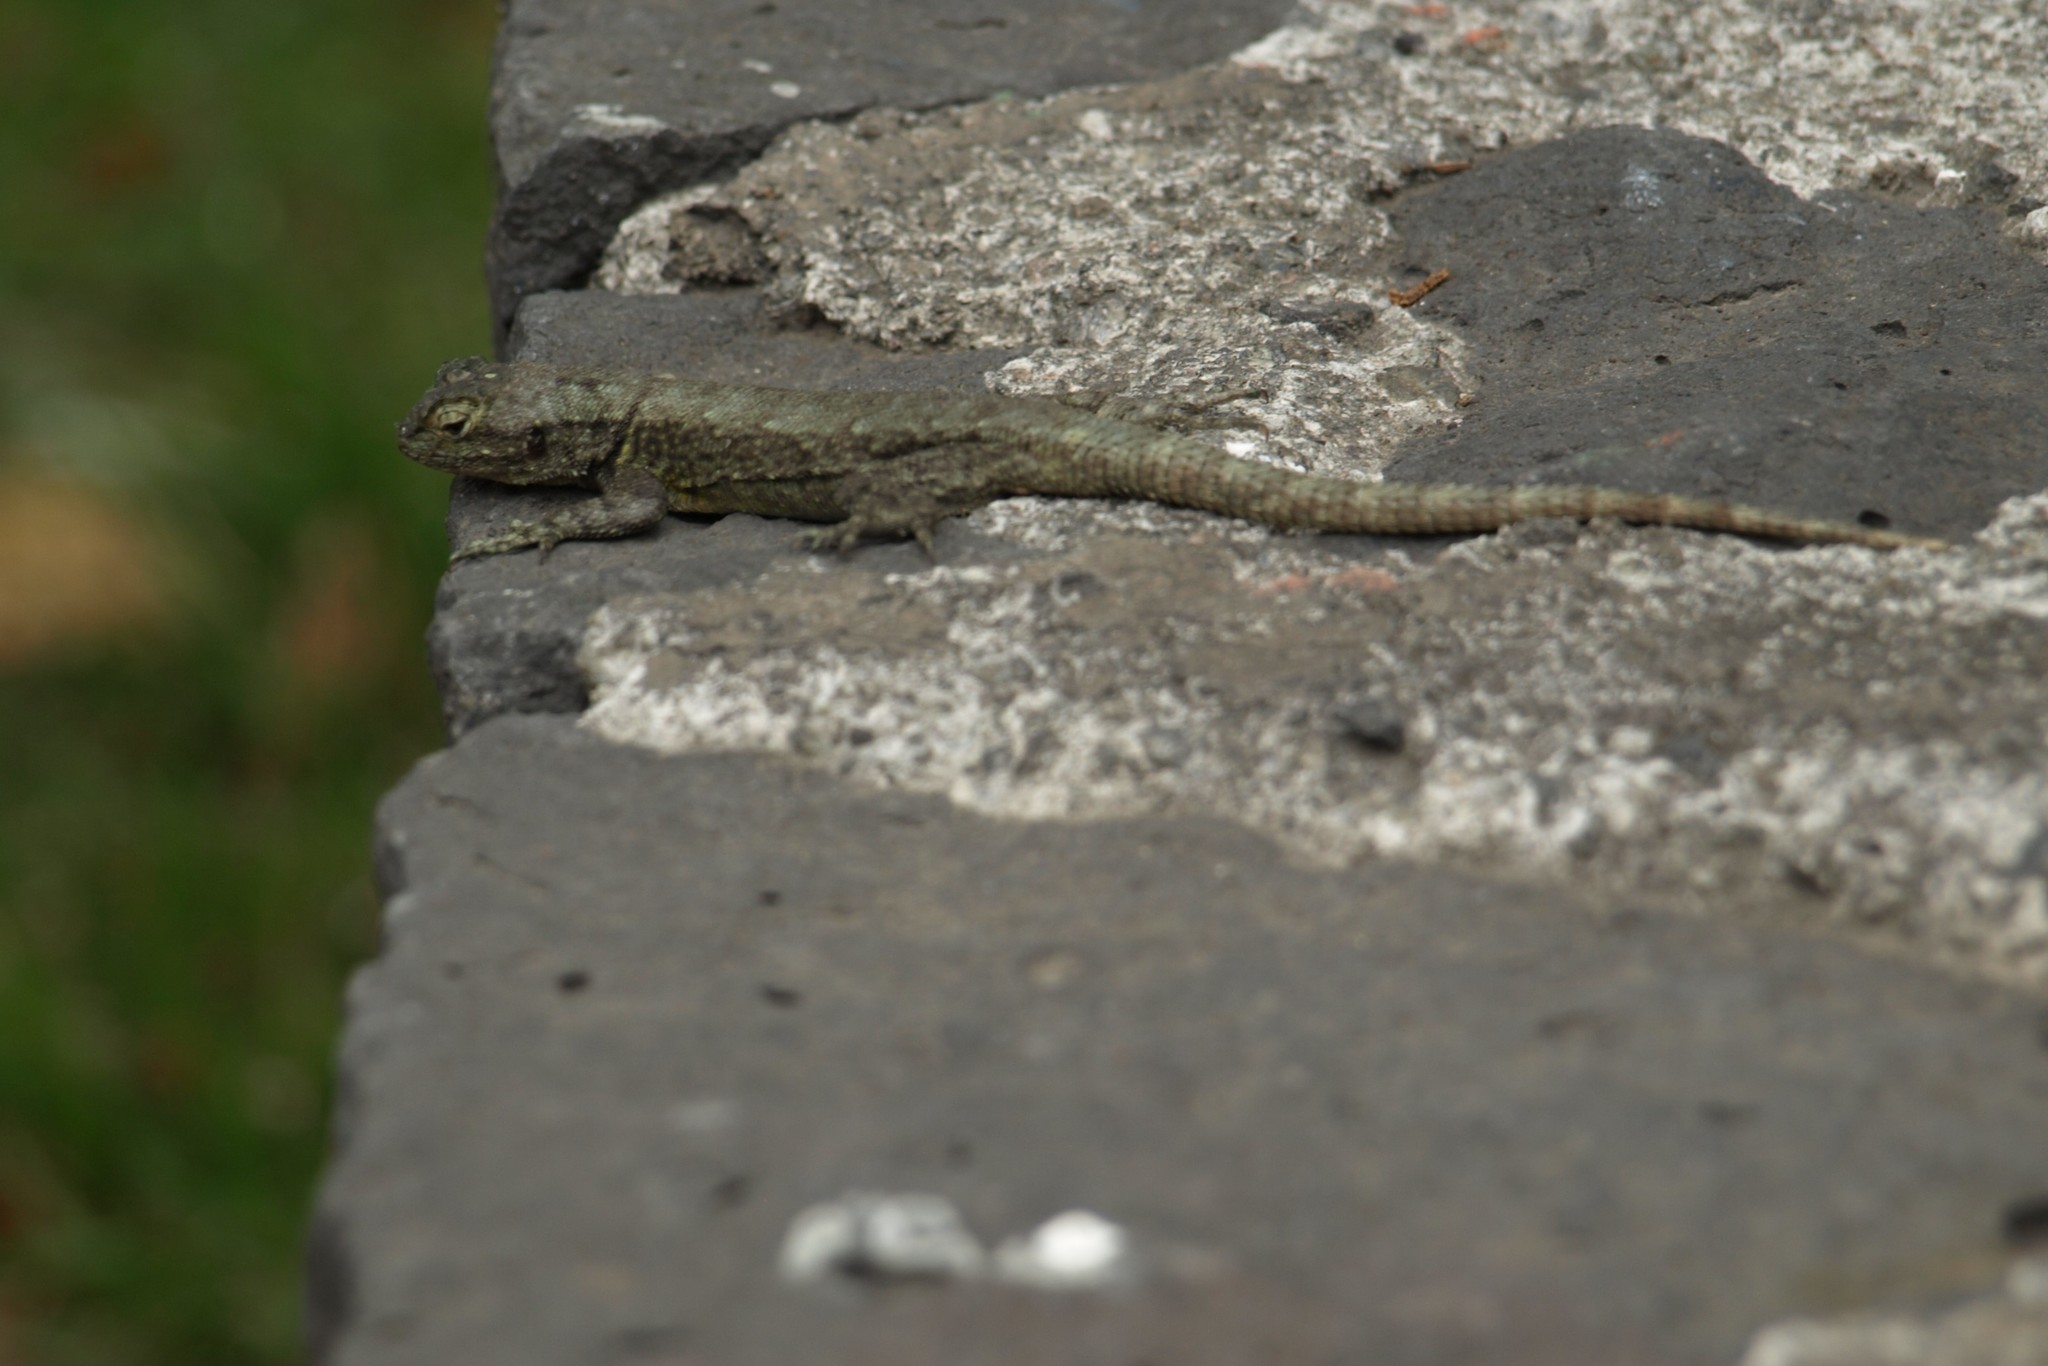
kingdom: Animalia
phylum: Chordata
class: Squamata
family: Phrynosomatidae
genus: Sceloporus
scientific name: Sceloporus grammicus
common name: Mesquite lizard
